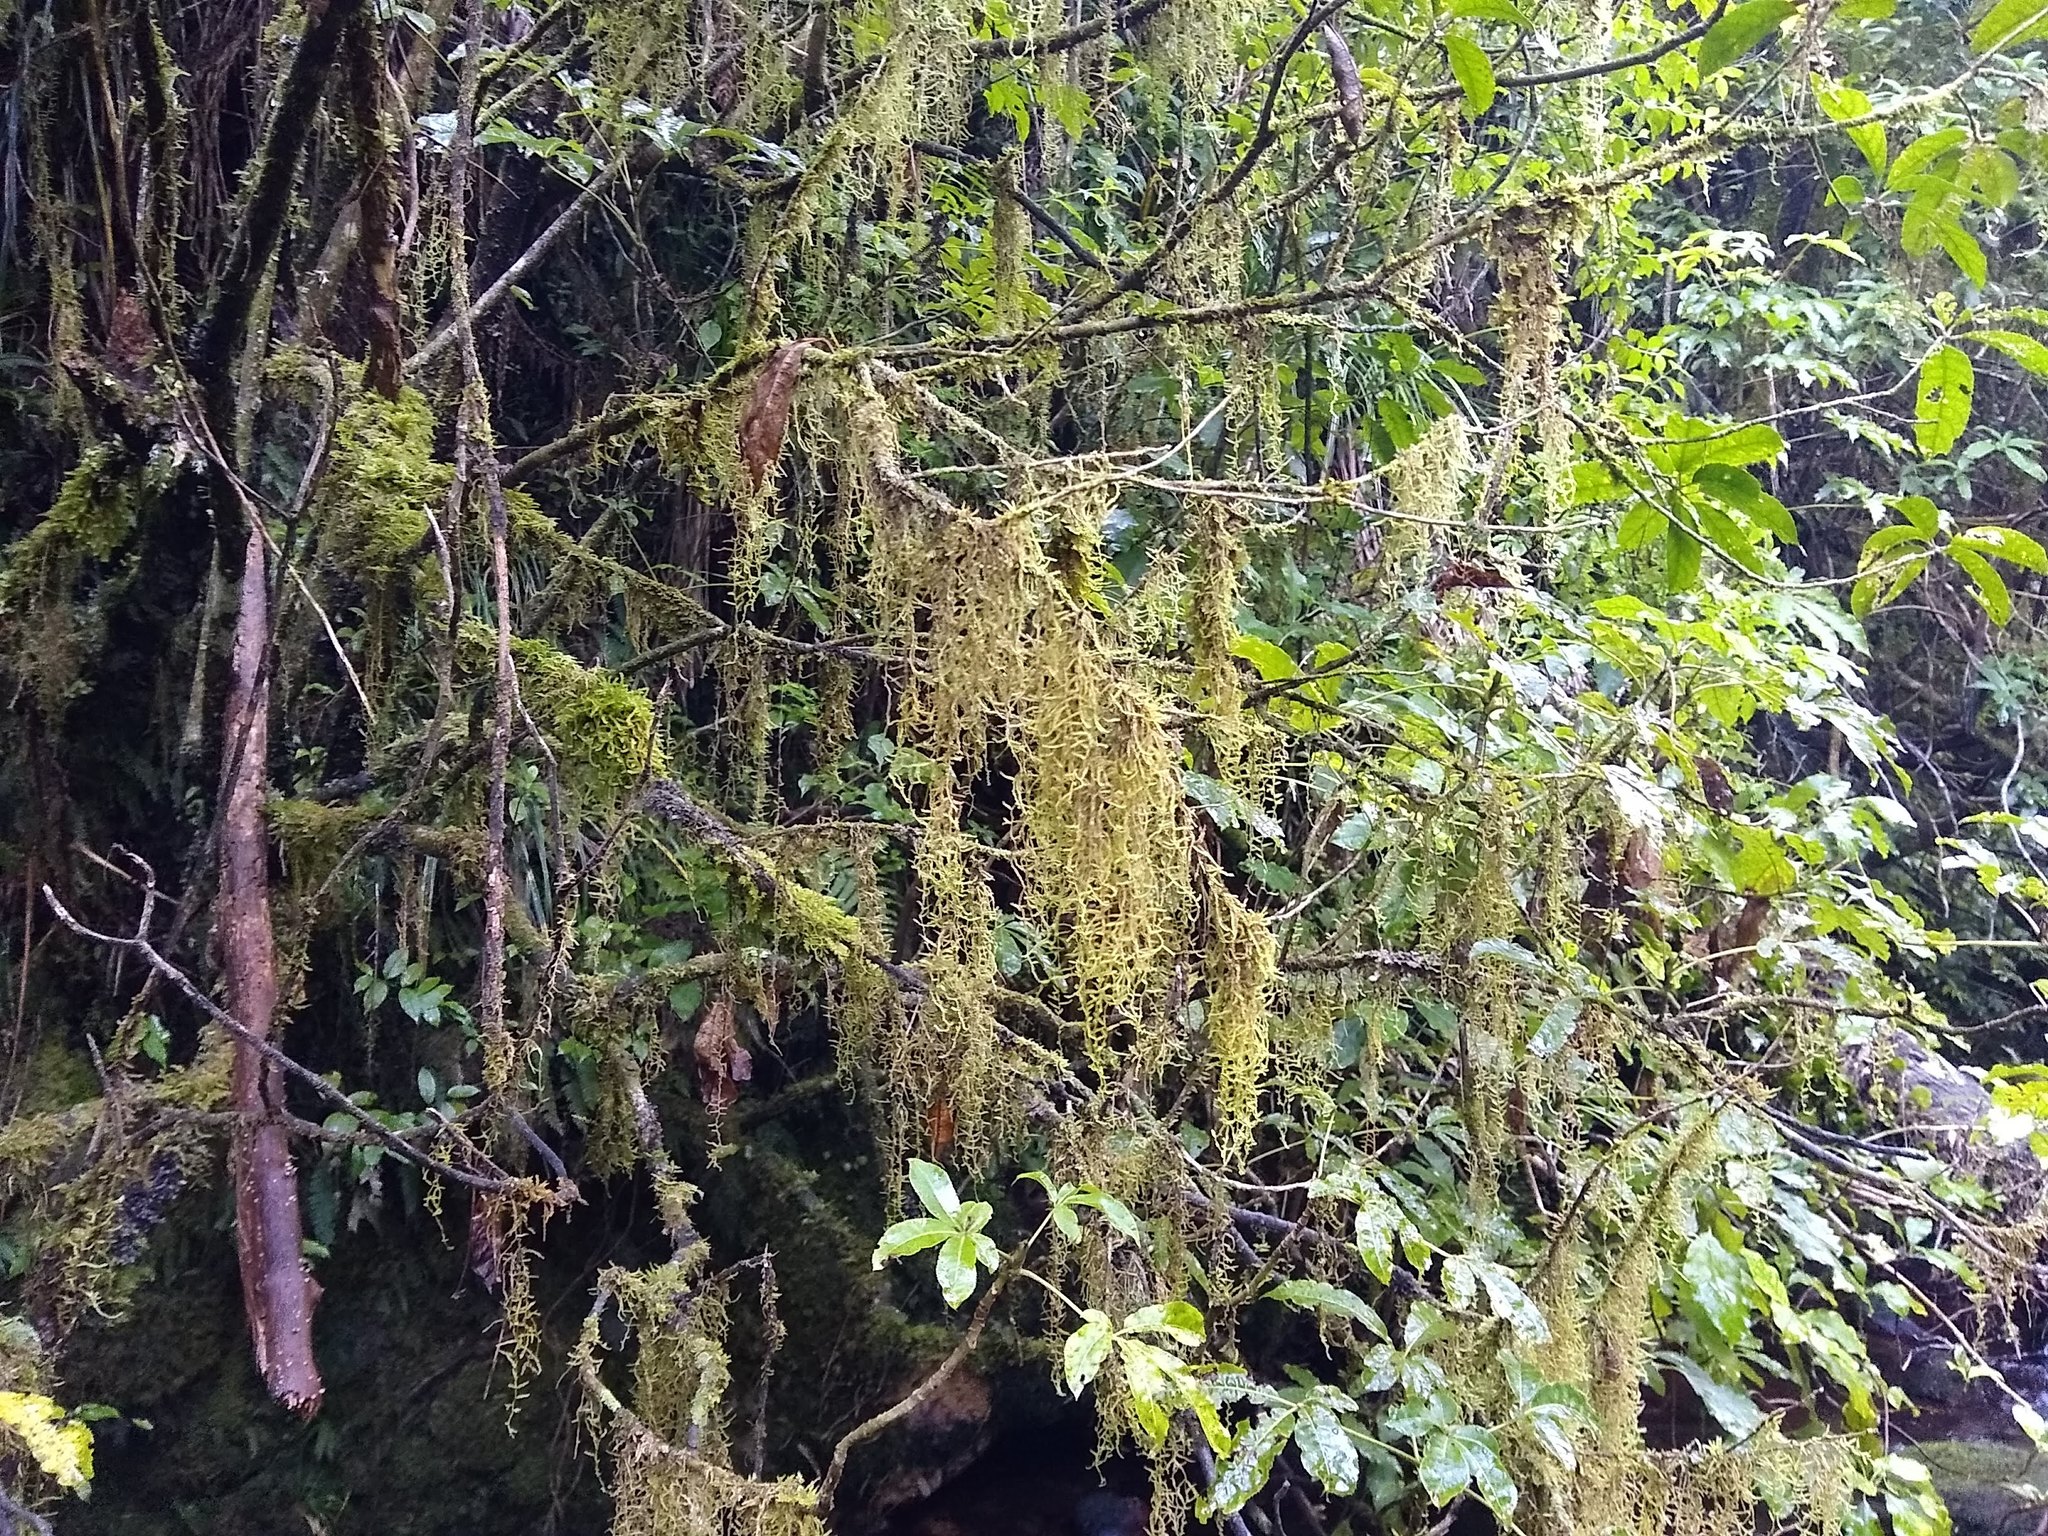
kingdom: Plantae
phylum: Bryophyta
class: Bryopsida
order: Hypnales
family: Lembophyllaceae
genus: Weymouthia
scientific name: Weymouthia mollis
